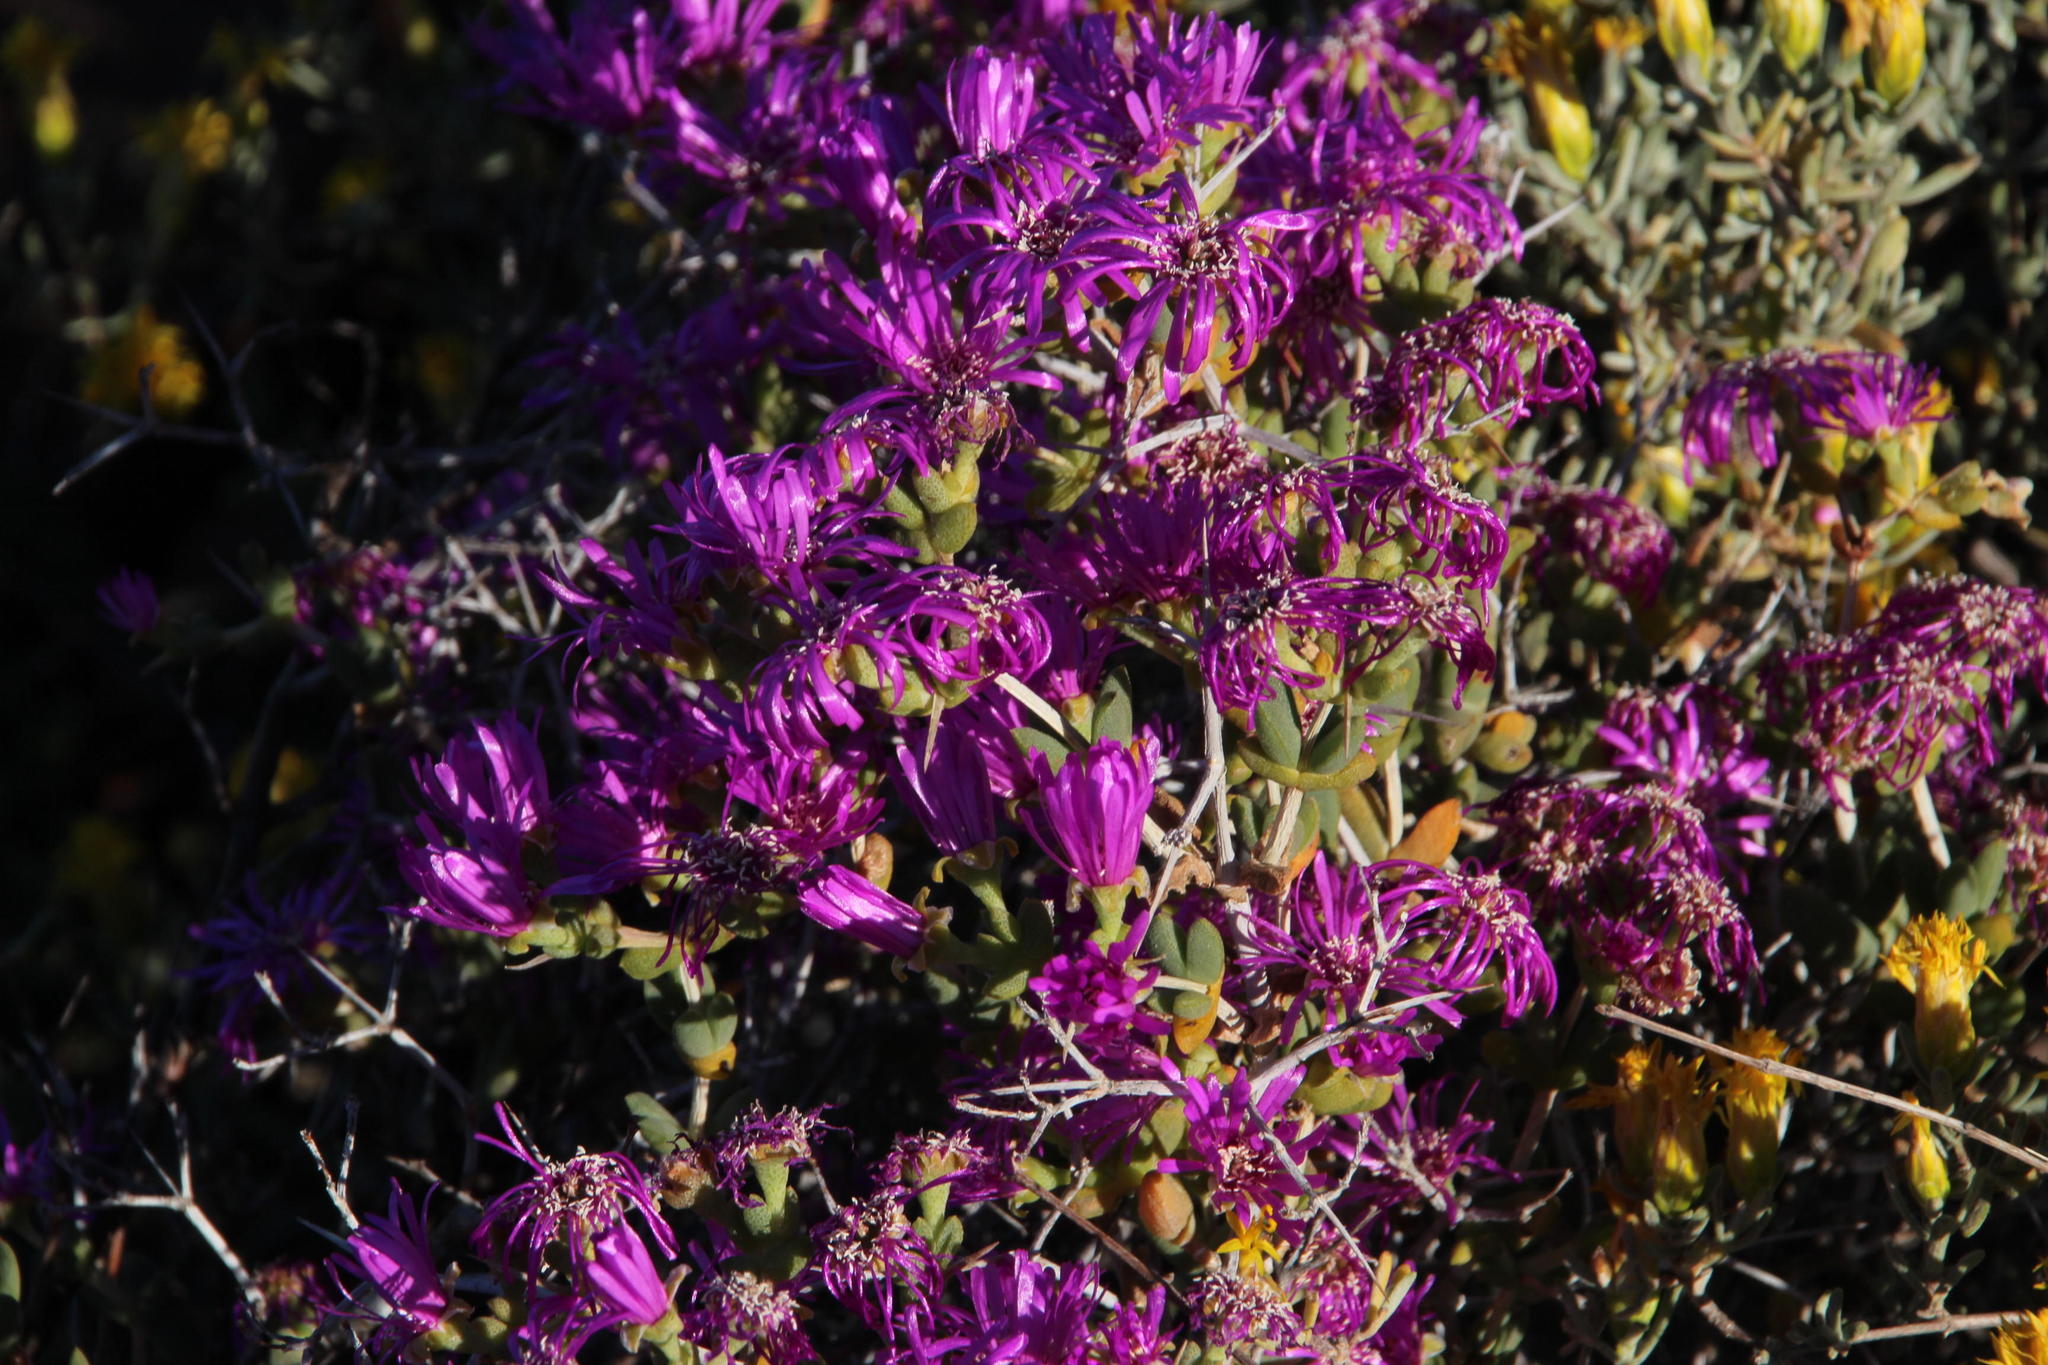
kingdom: Plantae
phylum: Tracheophyta
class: Magnoliopsida
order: Caryophyllales
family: Aizoaceae
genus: Ruschia
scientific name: Ruschia centrocapsula
